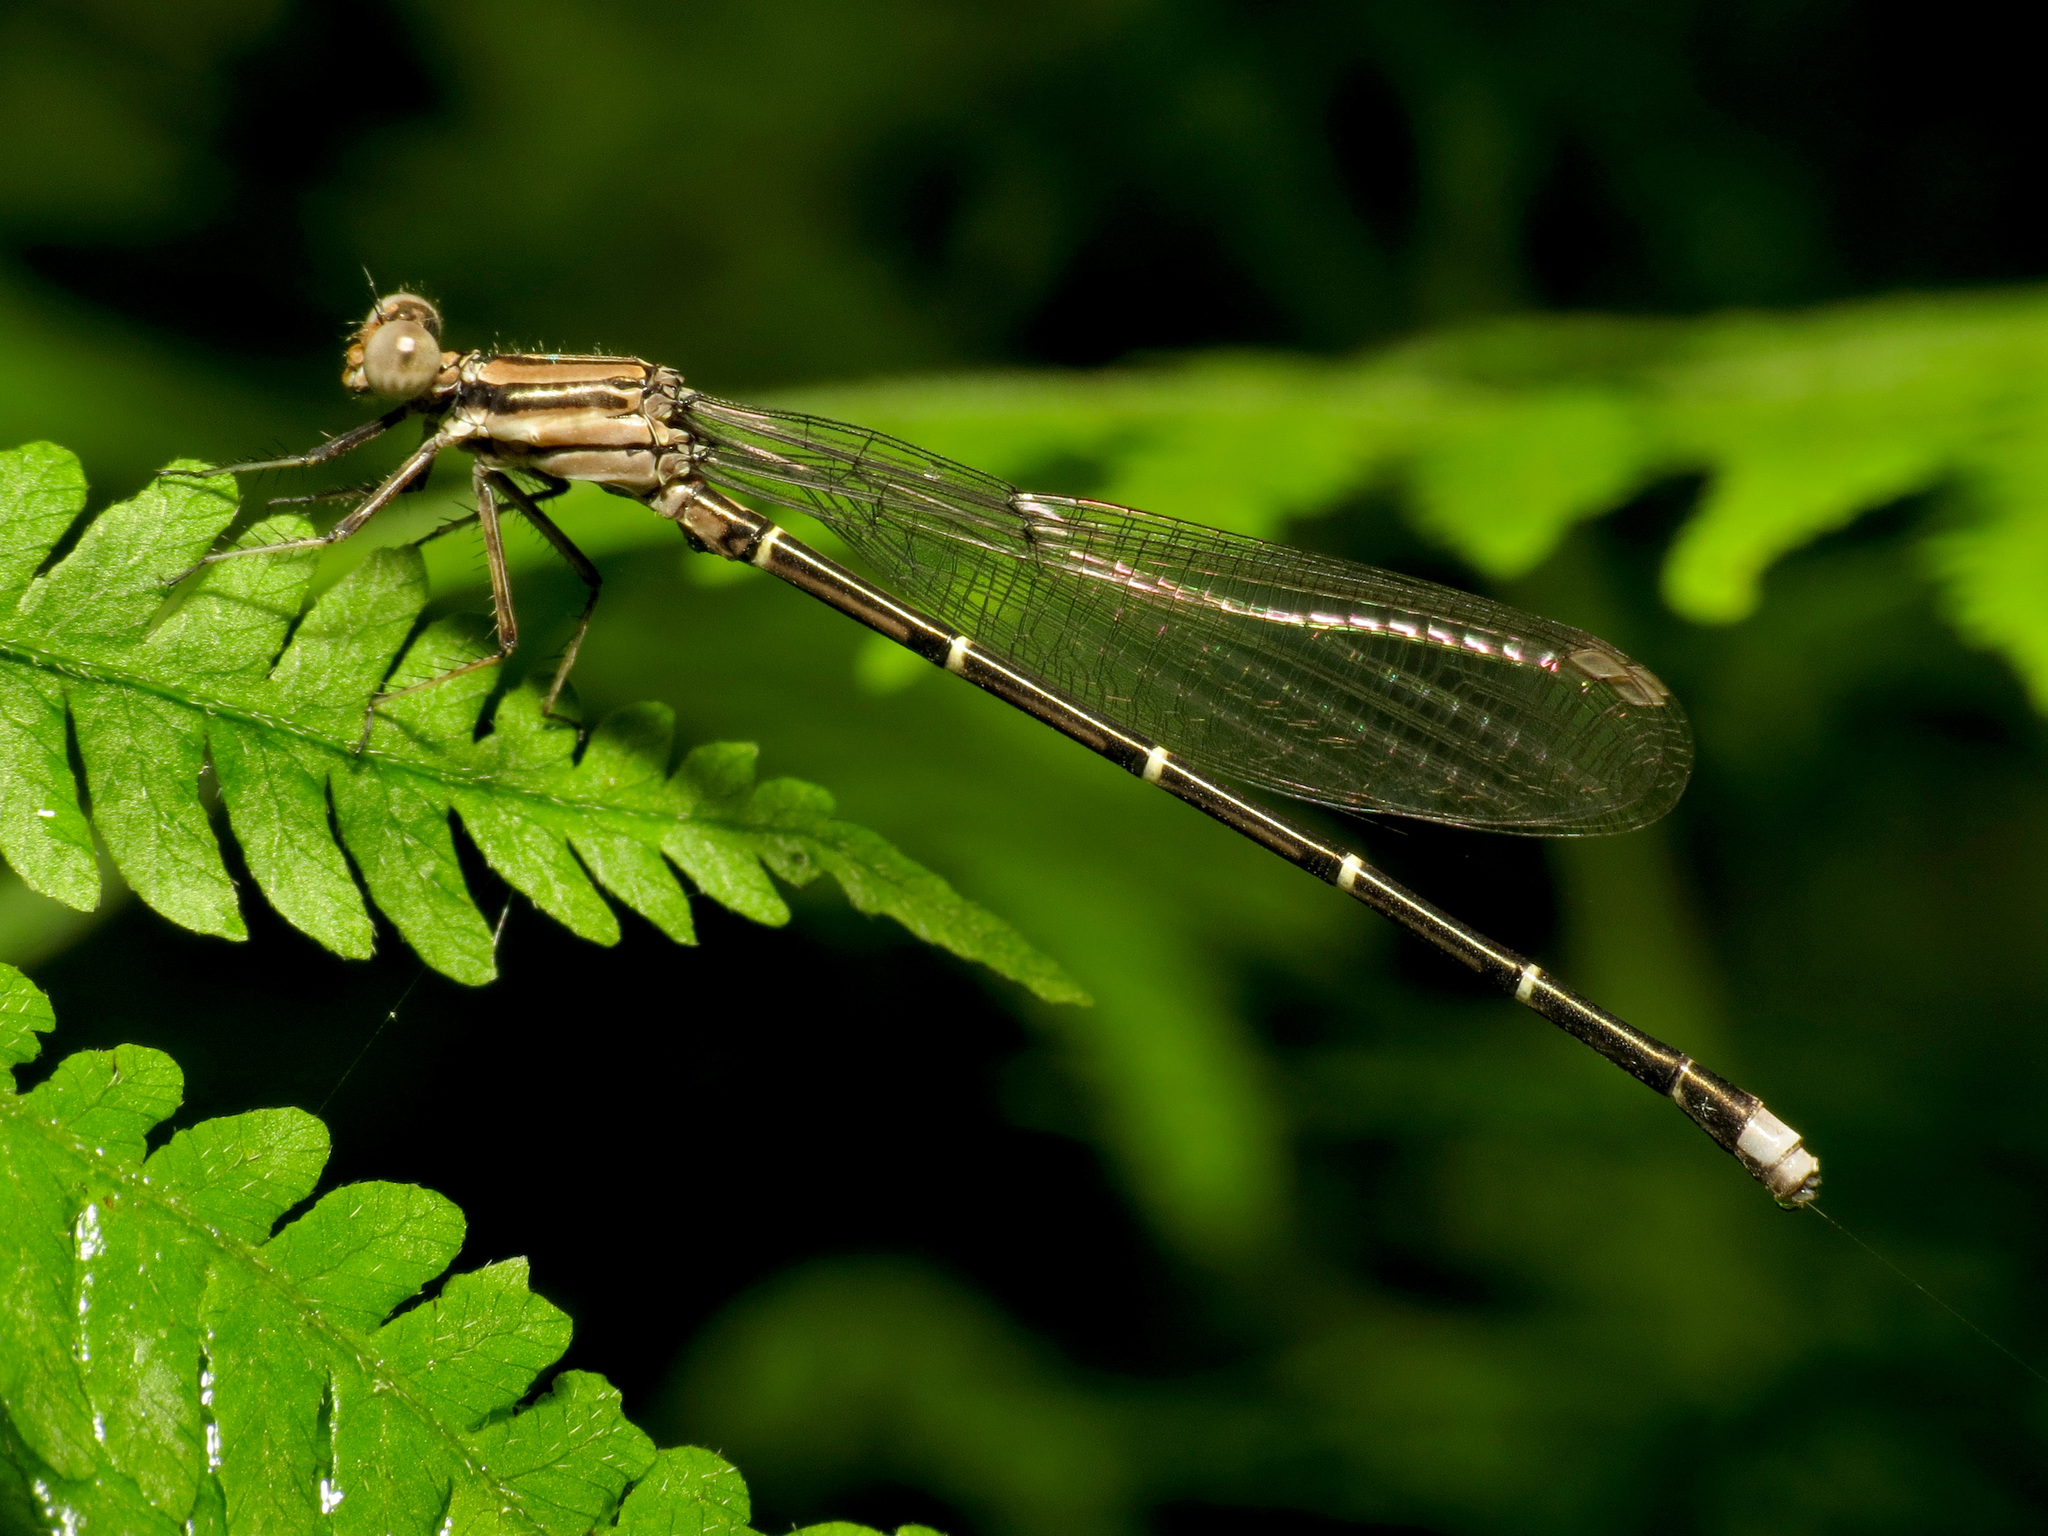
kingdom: Animalia
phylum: Arthropoda
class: Insecta
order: Odonata
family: Coenagrionidae
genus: Argia
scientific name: Argia tibialis
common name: Blue-tipped dancer
